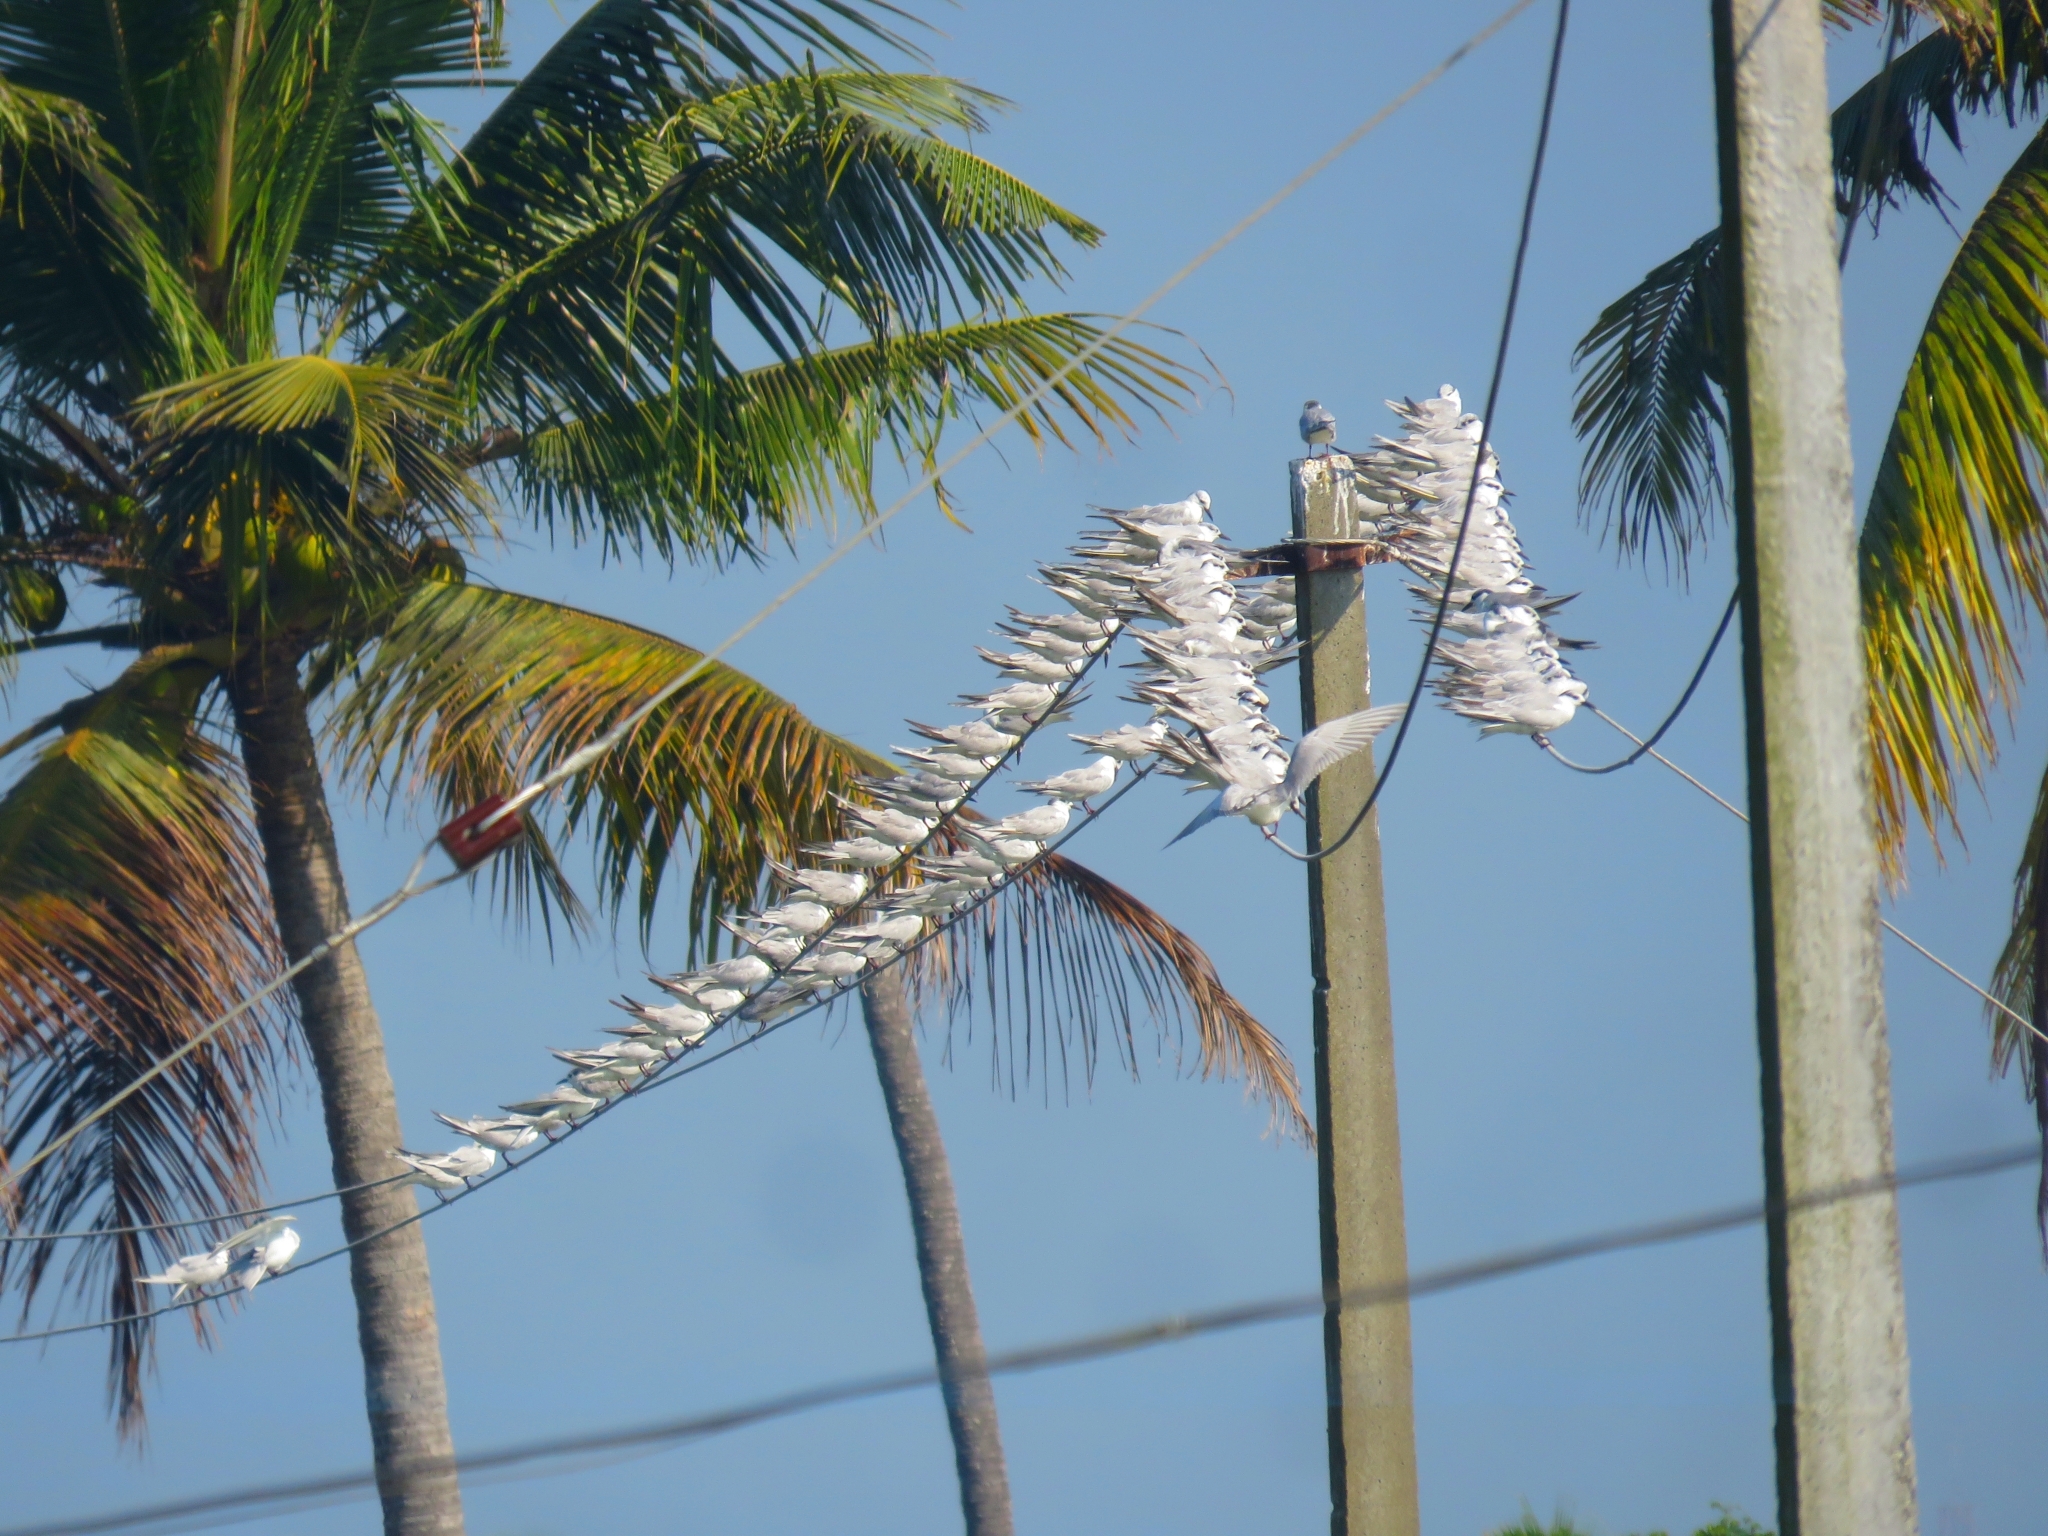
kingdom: Animalia
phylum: Chordata
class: Aves
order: Charadriiformes
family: Laridae
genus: Chlidonias
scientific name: Chlidonias hybrida
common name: Whiskered tern
